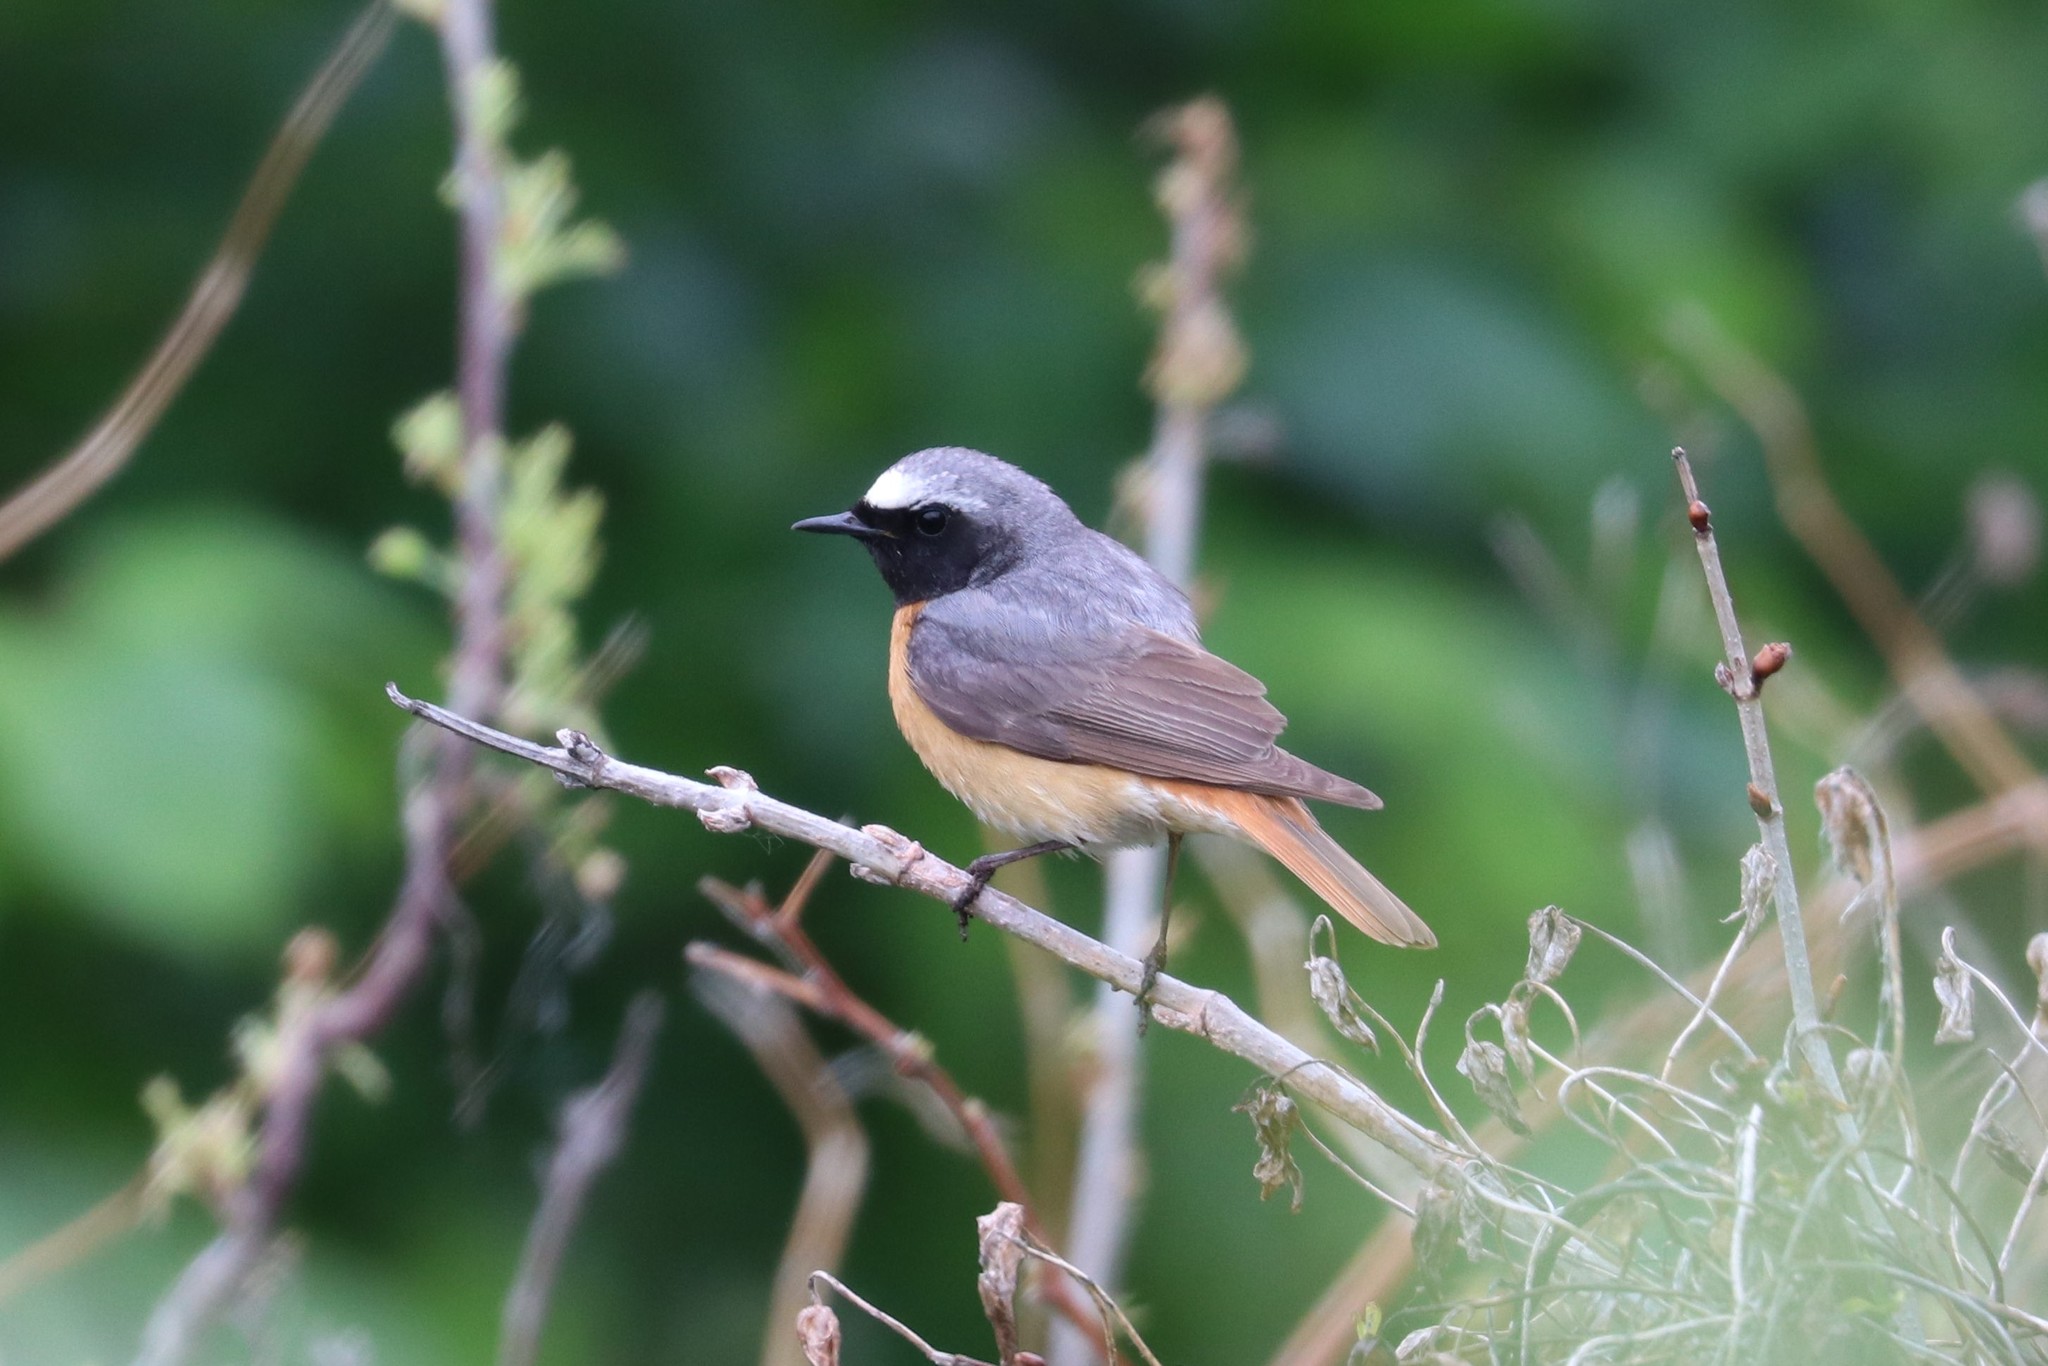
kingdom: Animalia
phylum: Chordata
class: Aves
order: Passeriformes
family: Muscicapidae
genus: Phoenicurus
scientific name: Phoenicurus phoenicurus
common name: Common redstart
